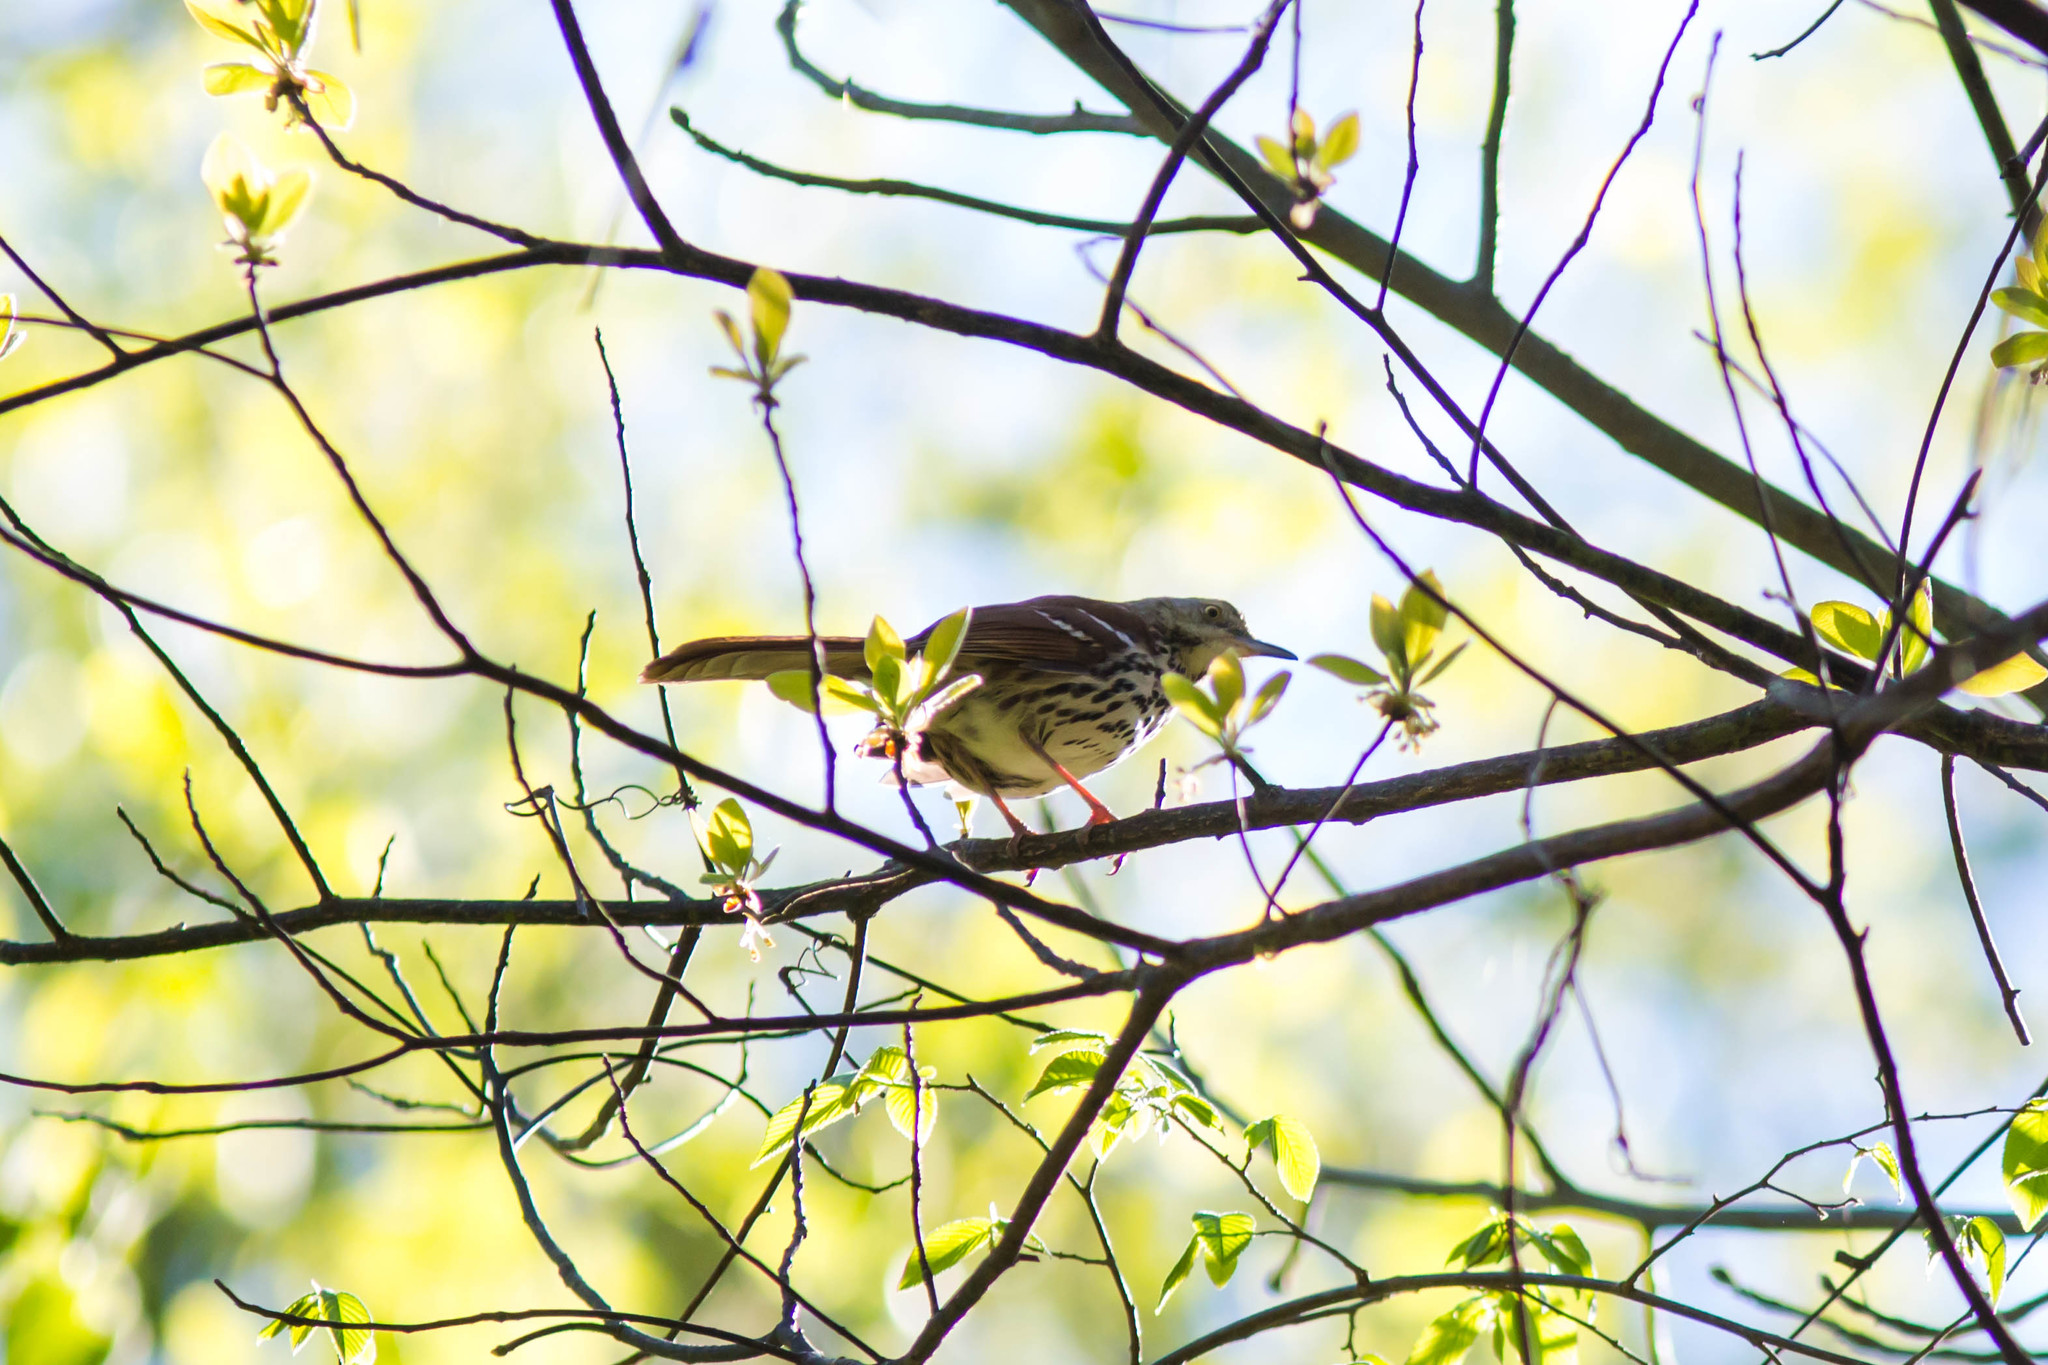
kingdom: Animalia
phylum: Chordata
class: Aves
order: Passeriformes
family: Mimidae
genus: Toxostoma
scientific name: Toxostoma rufum
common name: Brown thrasher
